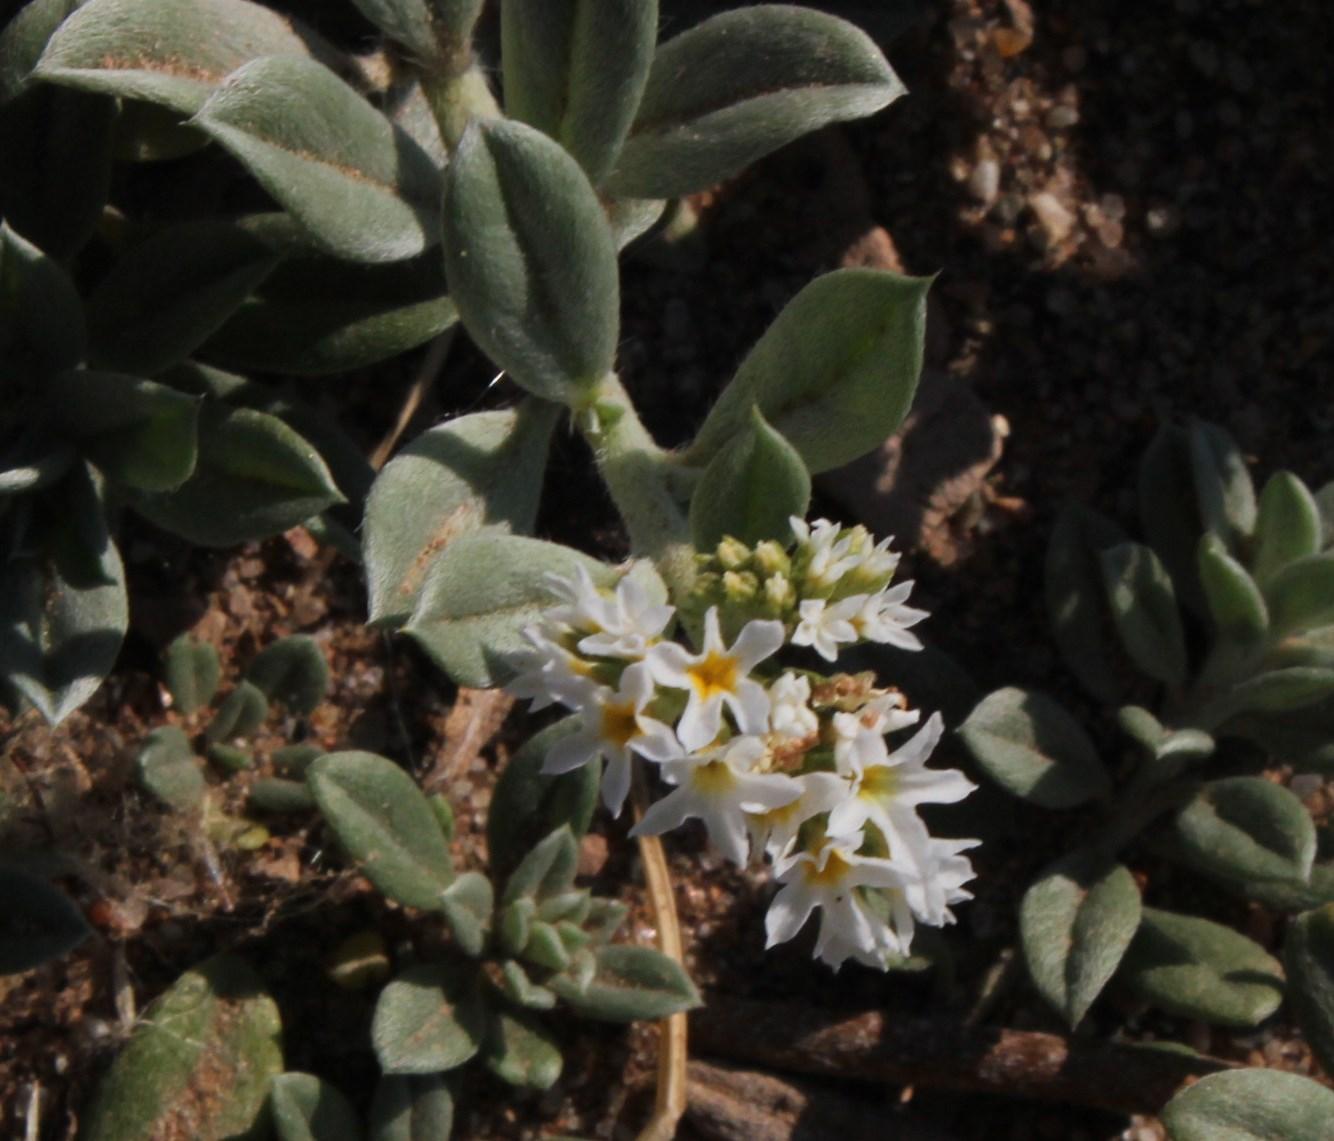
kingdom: Plantae
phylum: Tracheophyta
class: Magnoliopsida
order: Boraginales
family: Heliotropiaceae
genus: Euploca
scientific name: Euploca ovalifolia
